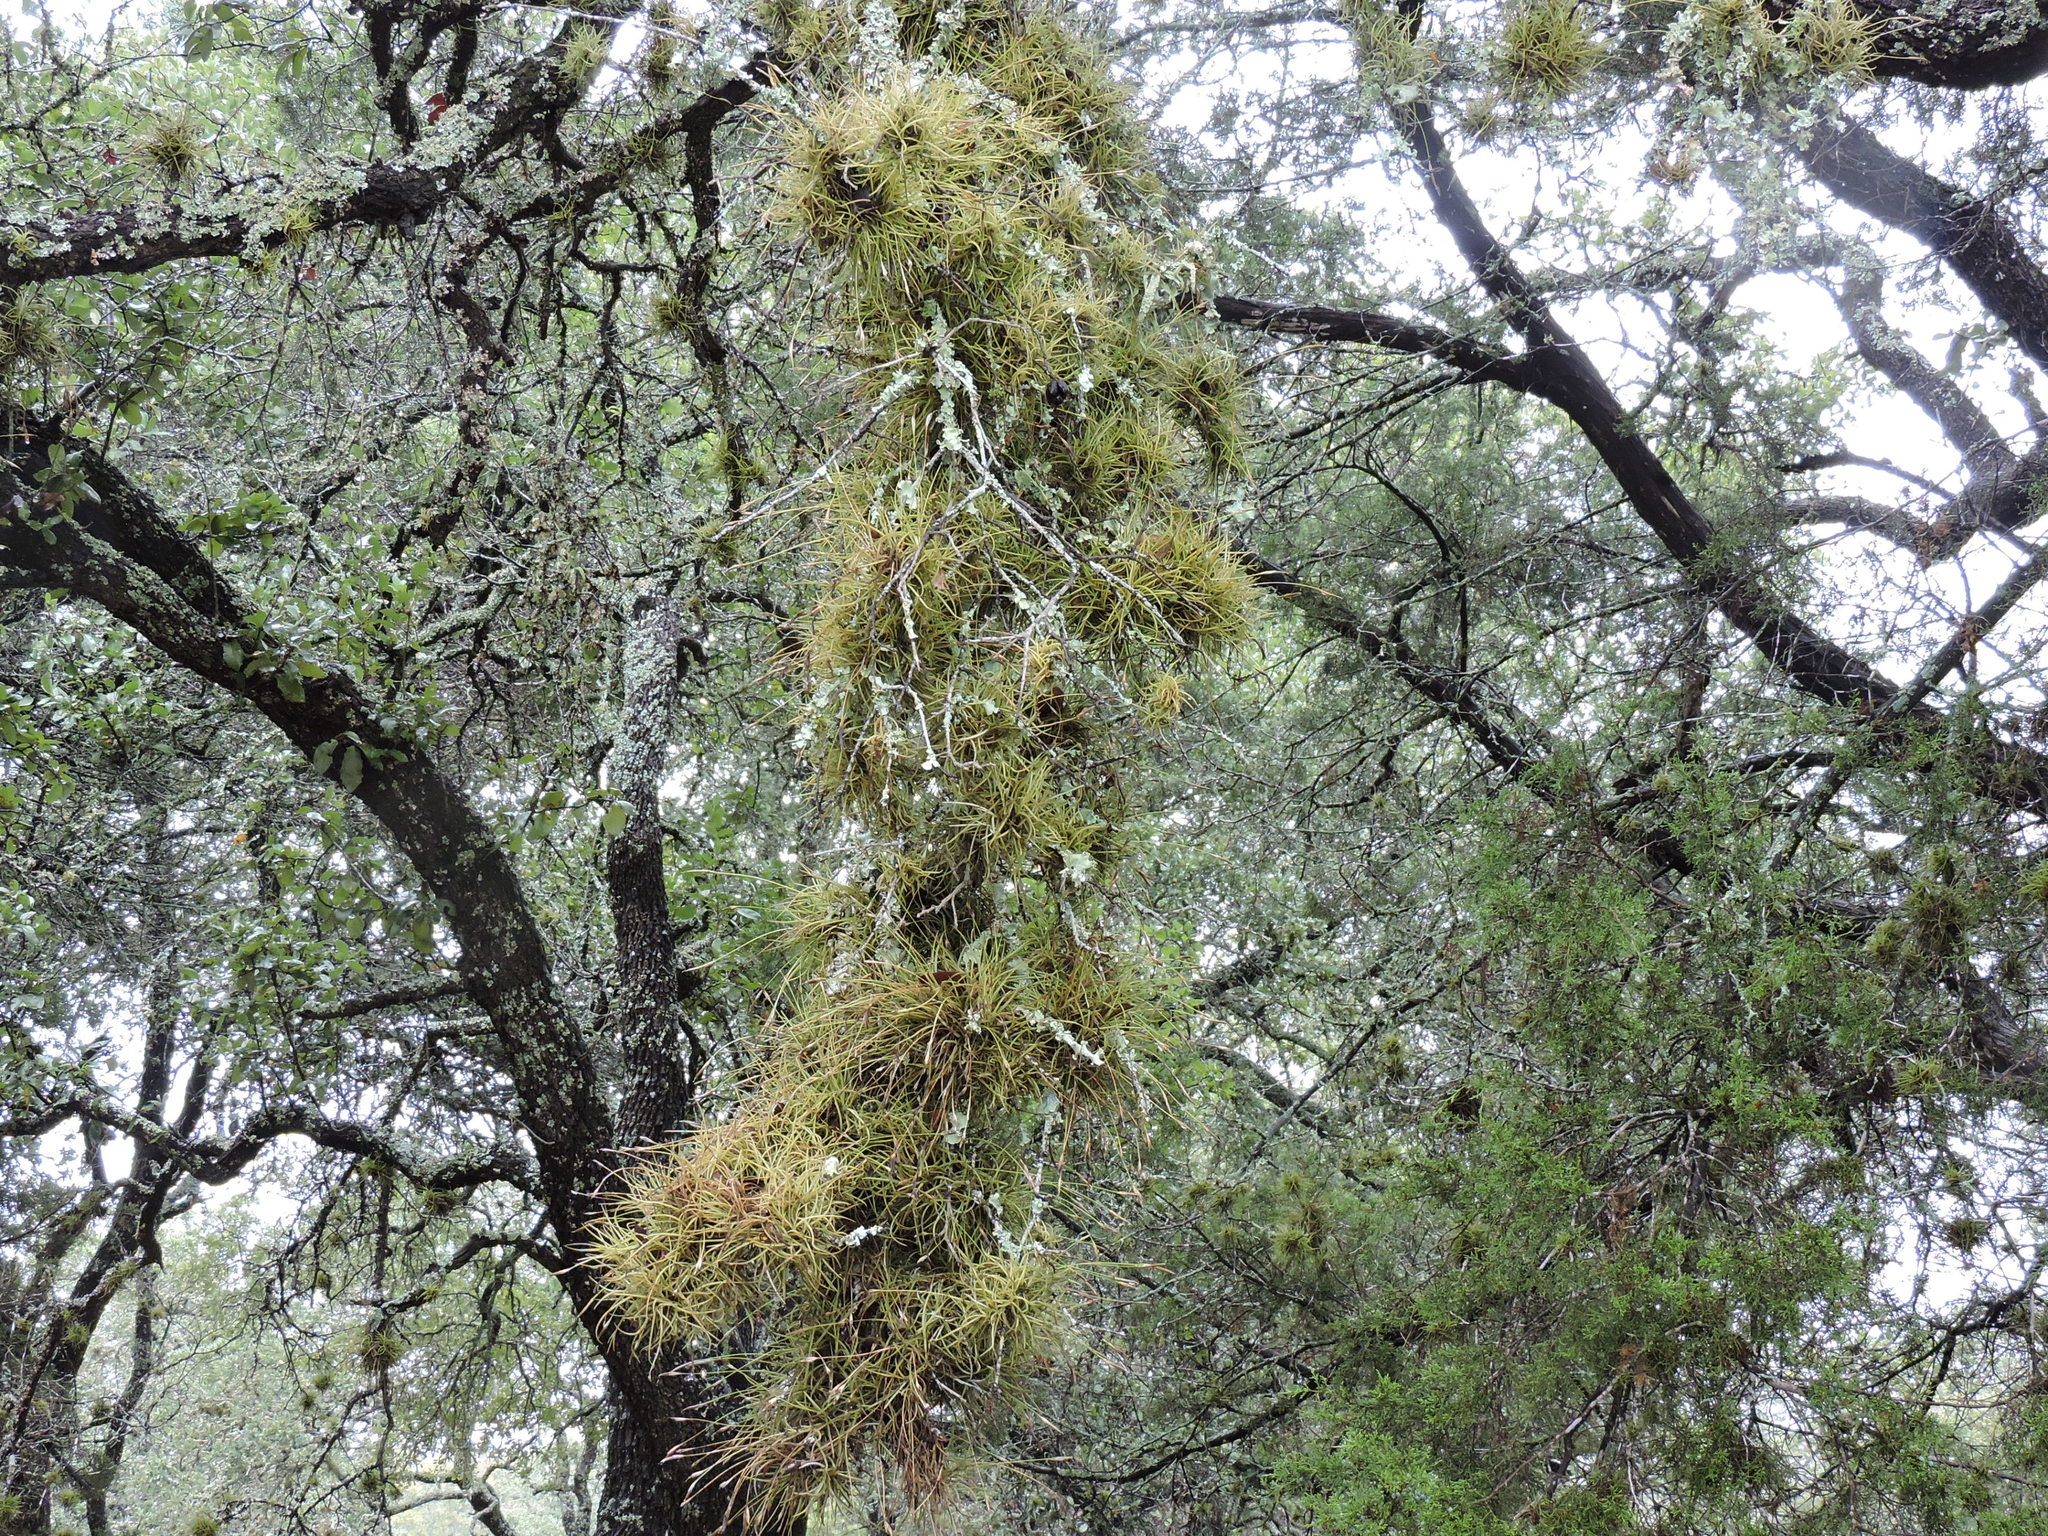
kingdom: Plantae
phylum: Tracheophyta
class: Liliopsida
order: Poales
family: Bromeliaceae
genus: Tillandsia
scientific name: Tillandsia recurvata
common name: Small ballmoss
